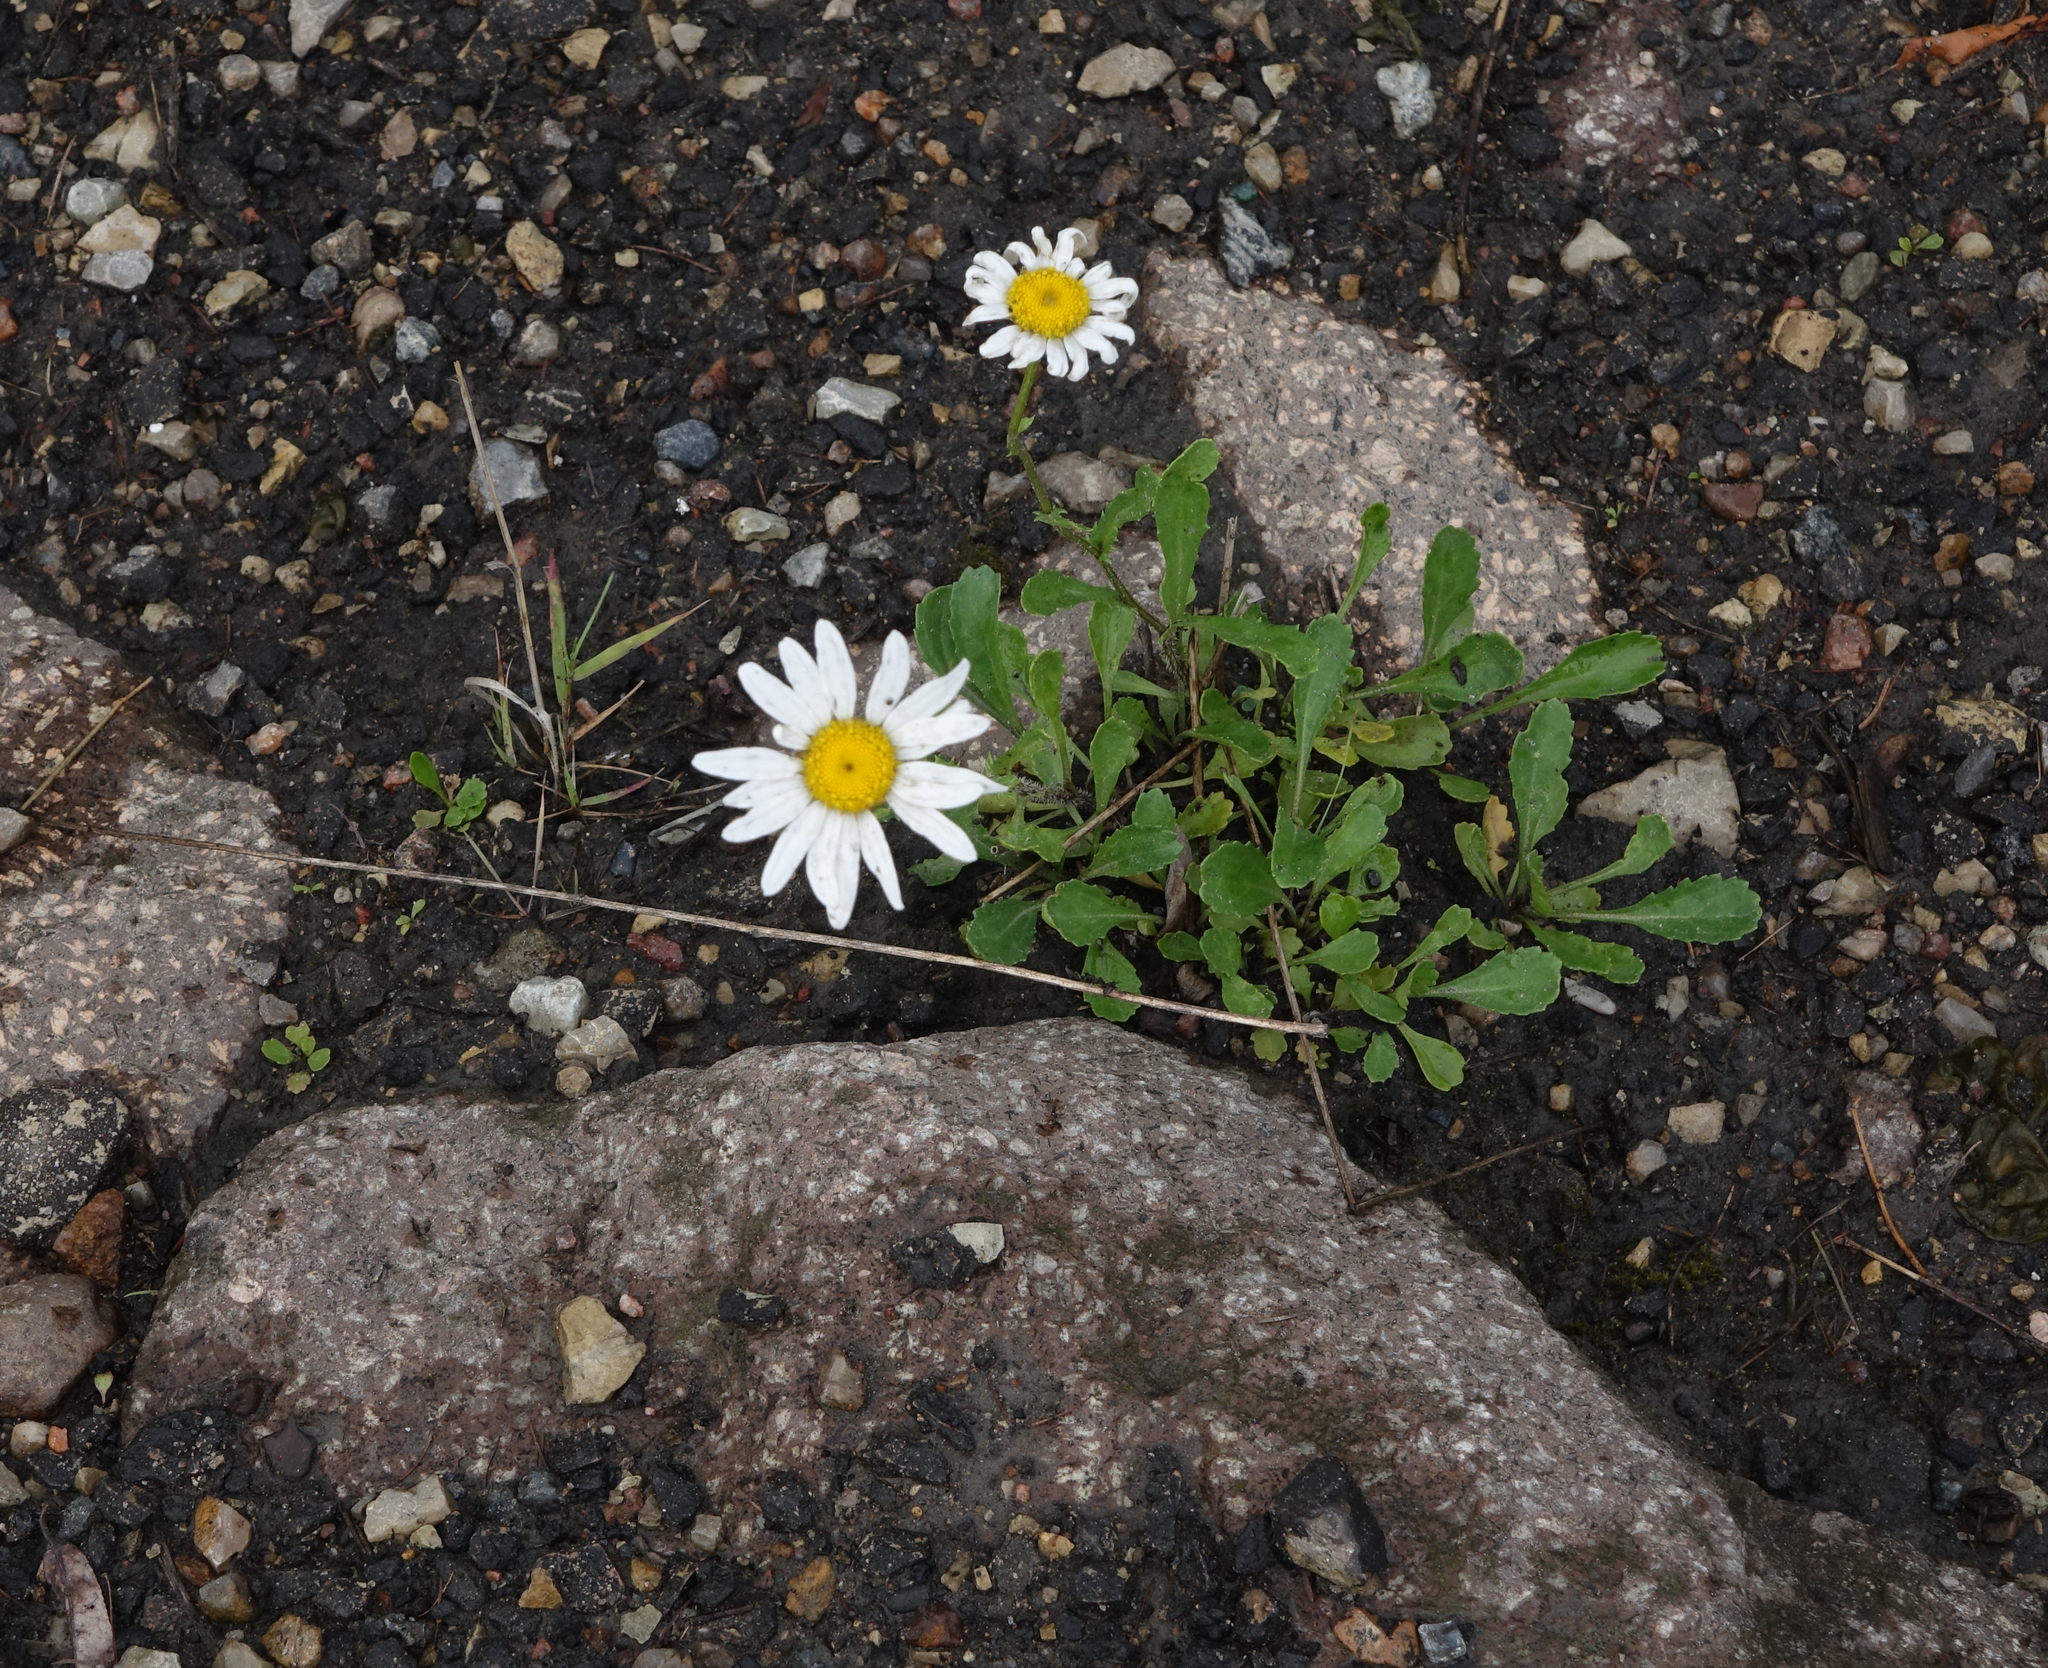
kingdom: Plantae
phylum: Tracheophyta
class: Magnoliopsida
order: Asterales
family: Asteraceae
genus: Leucanthemum
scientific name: Leucanthemum ircutianum
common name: Daisy
